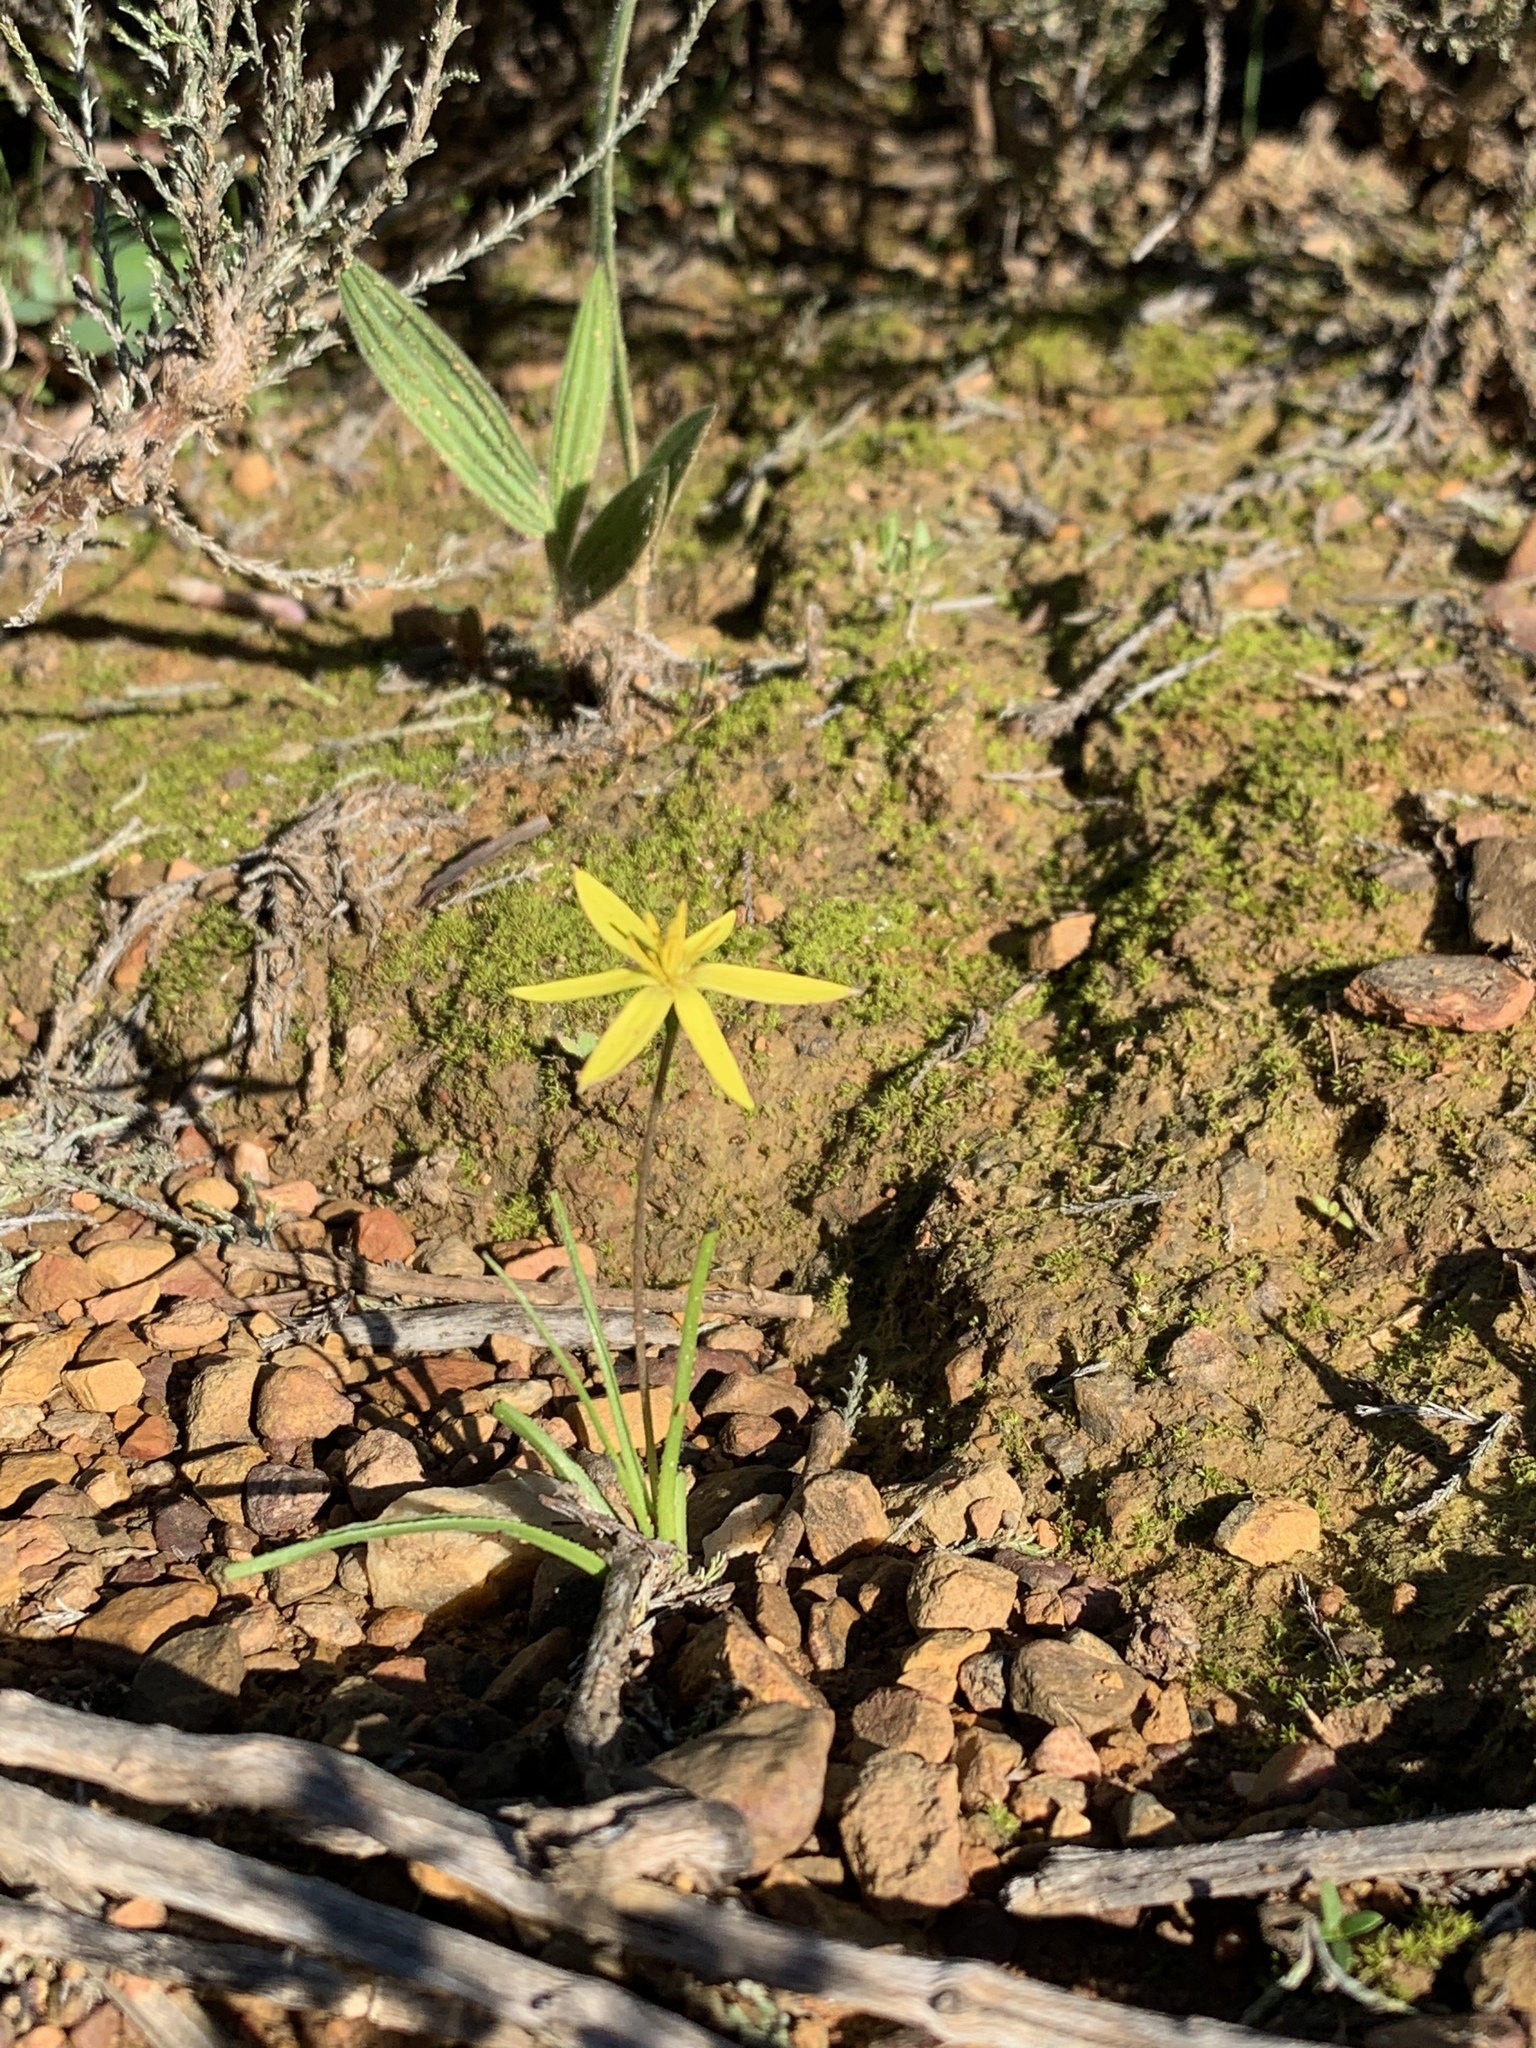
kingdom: Plantae
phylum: Tracheophyta
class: Liliopsida
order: Asparagales
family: Hypoxidaceae
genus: Pauridia
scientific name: Pauridia serrata
